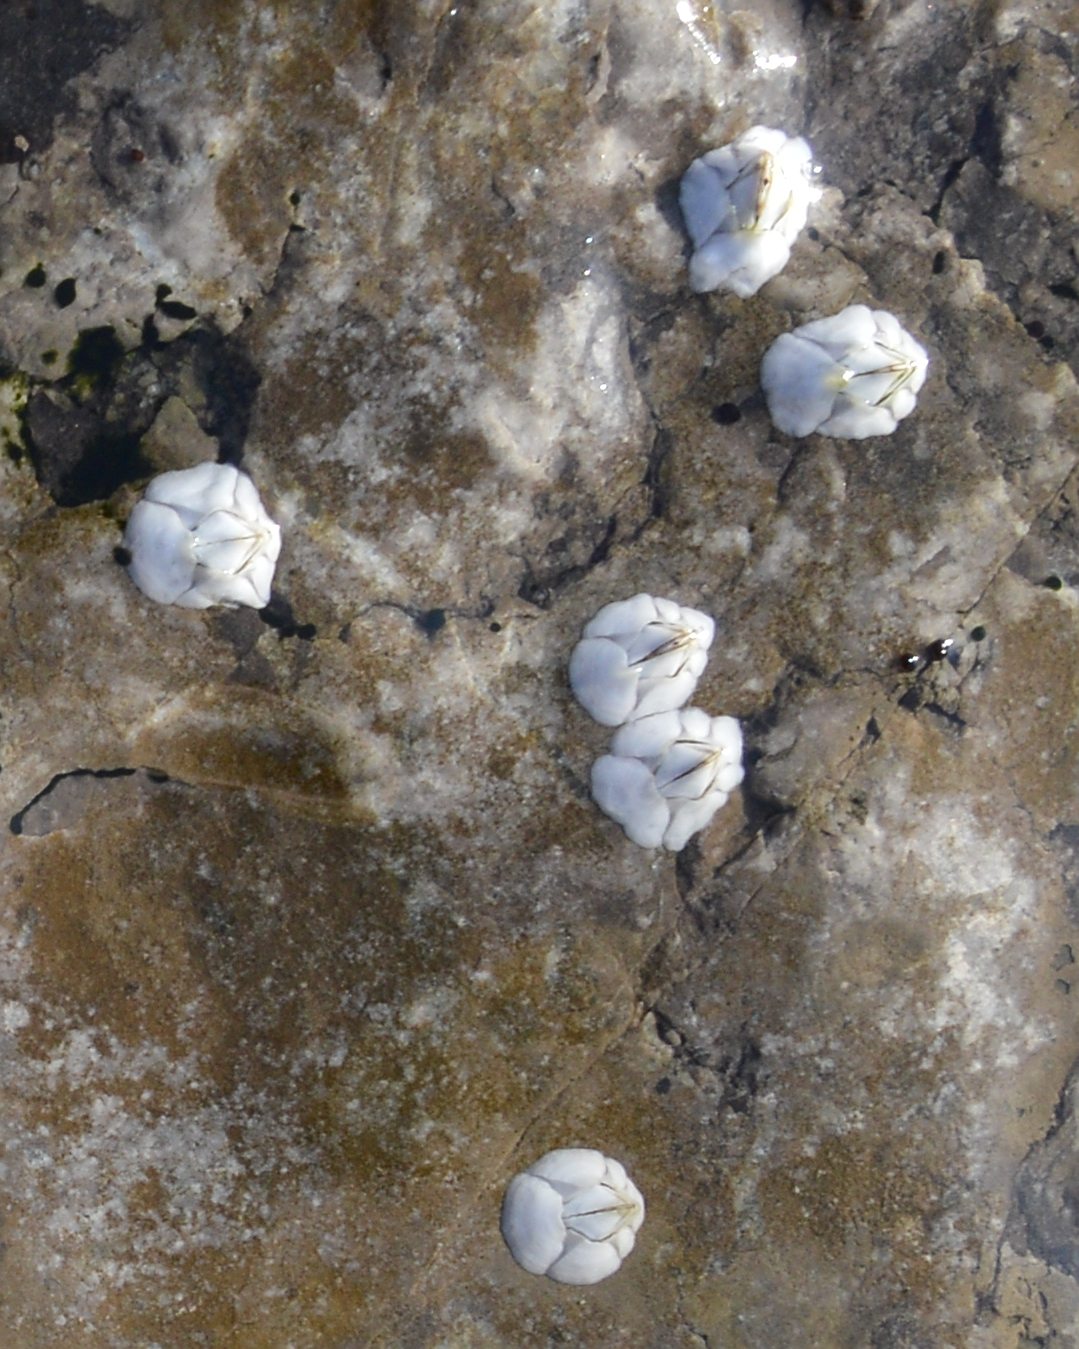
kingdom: Animalia
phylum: Arthropoda
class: Maxillopoda
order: Sessilia
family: Archaeobalanidae
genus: Semibalanus
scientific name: Semibalanus balanoides
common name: Acorn barnacle
